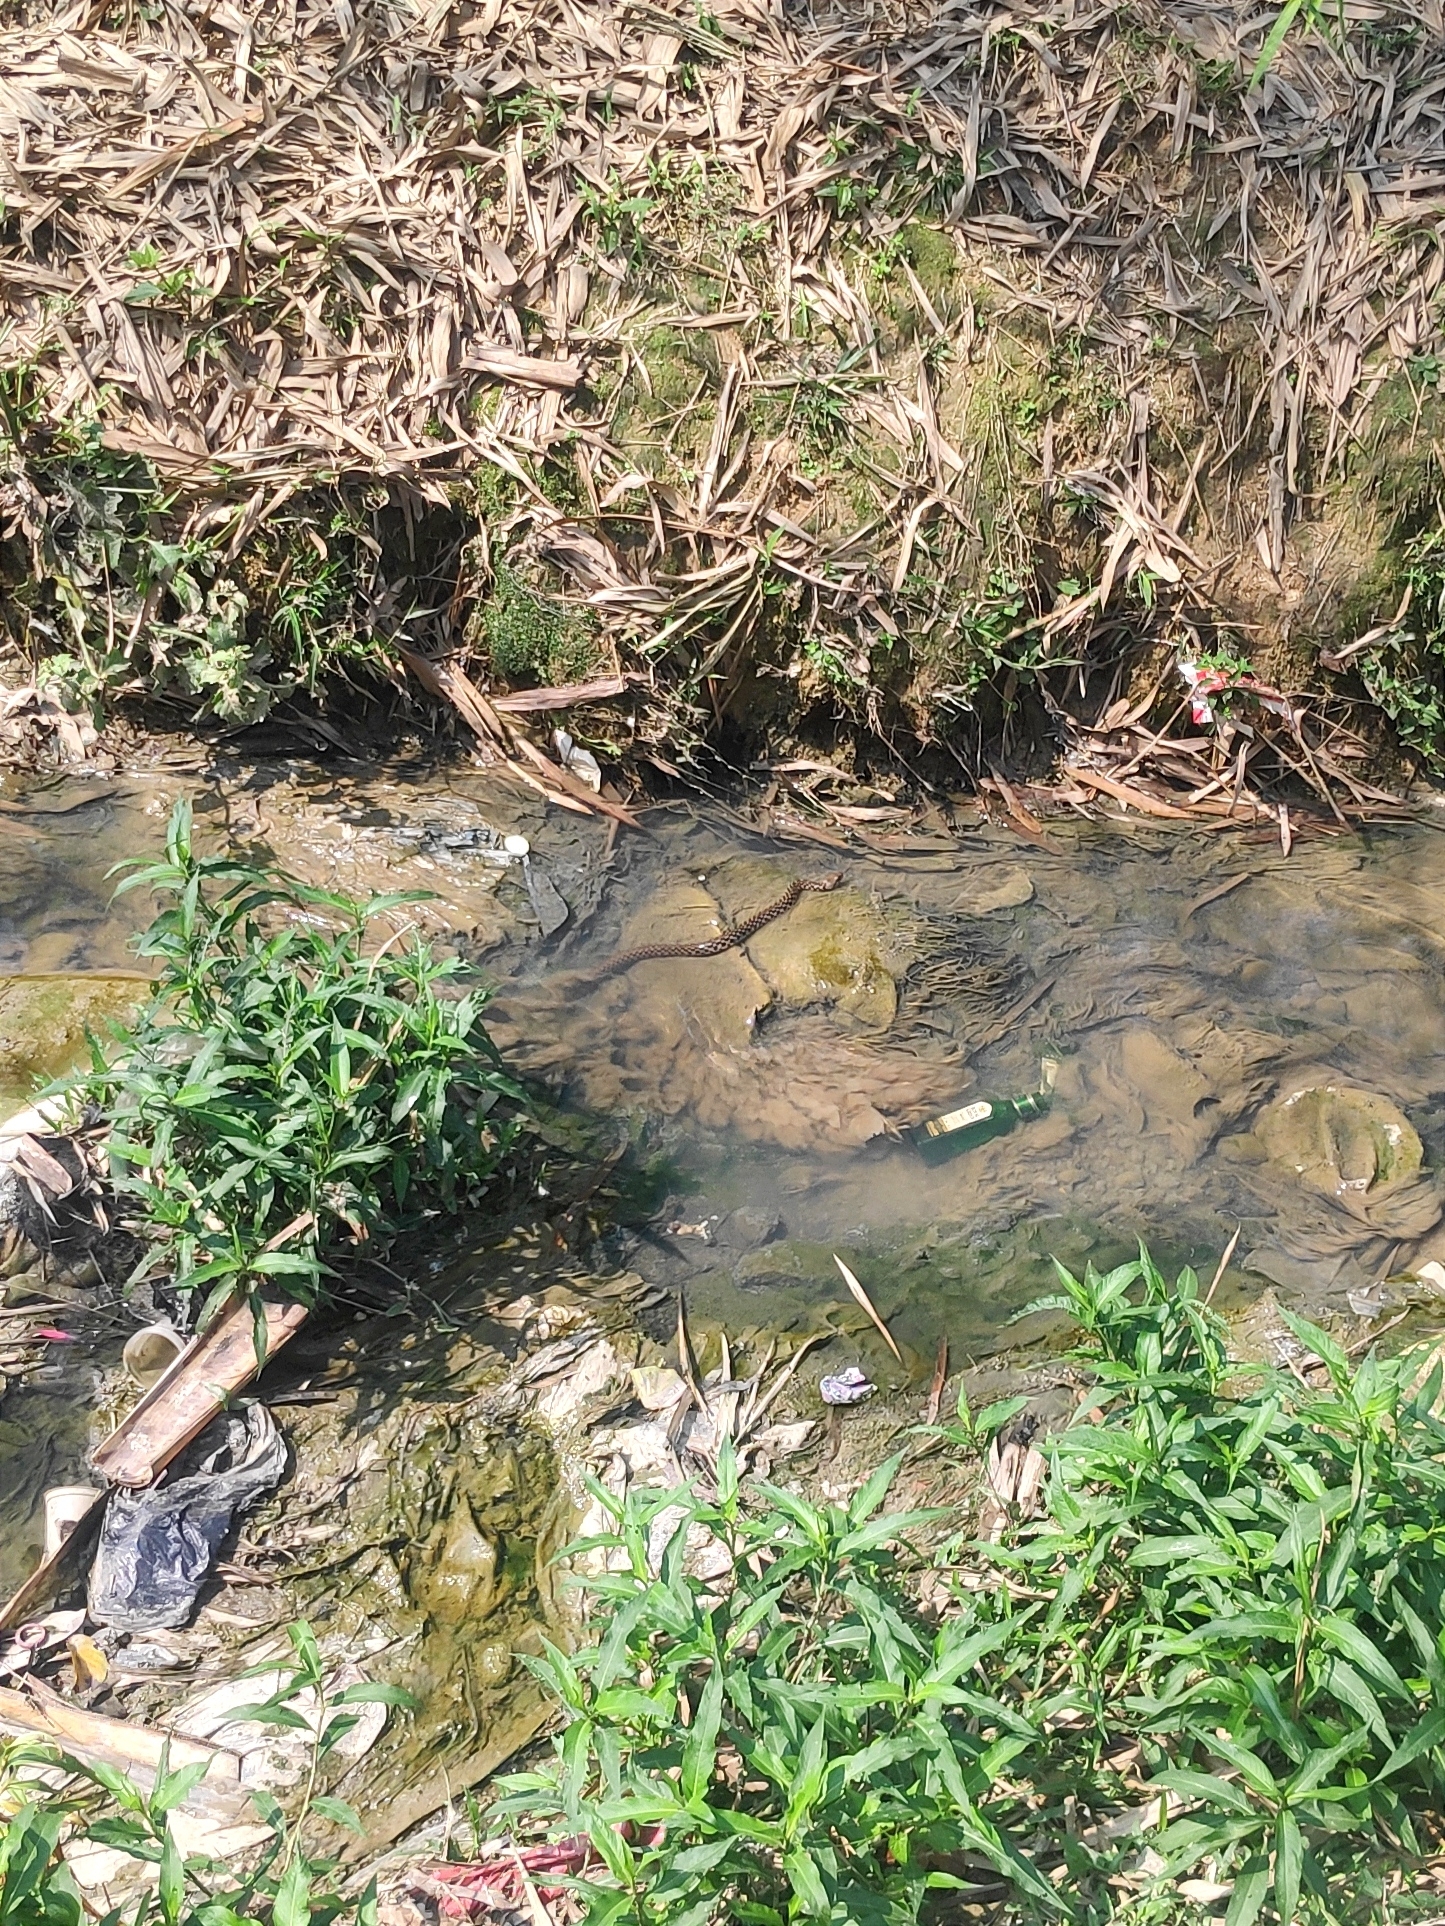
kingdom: Animalia
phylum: Chordata
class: Squamata
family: Colubridae
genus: Fowlea
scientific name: Fowlea piscator
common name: Asiatic water snake
